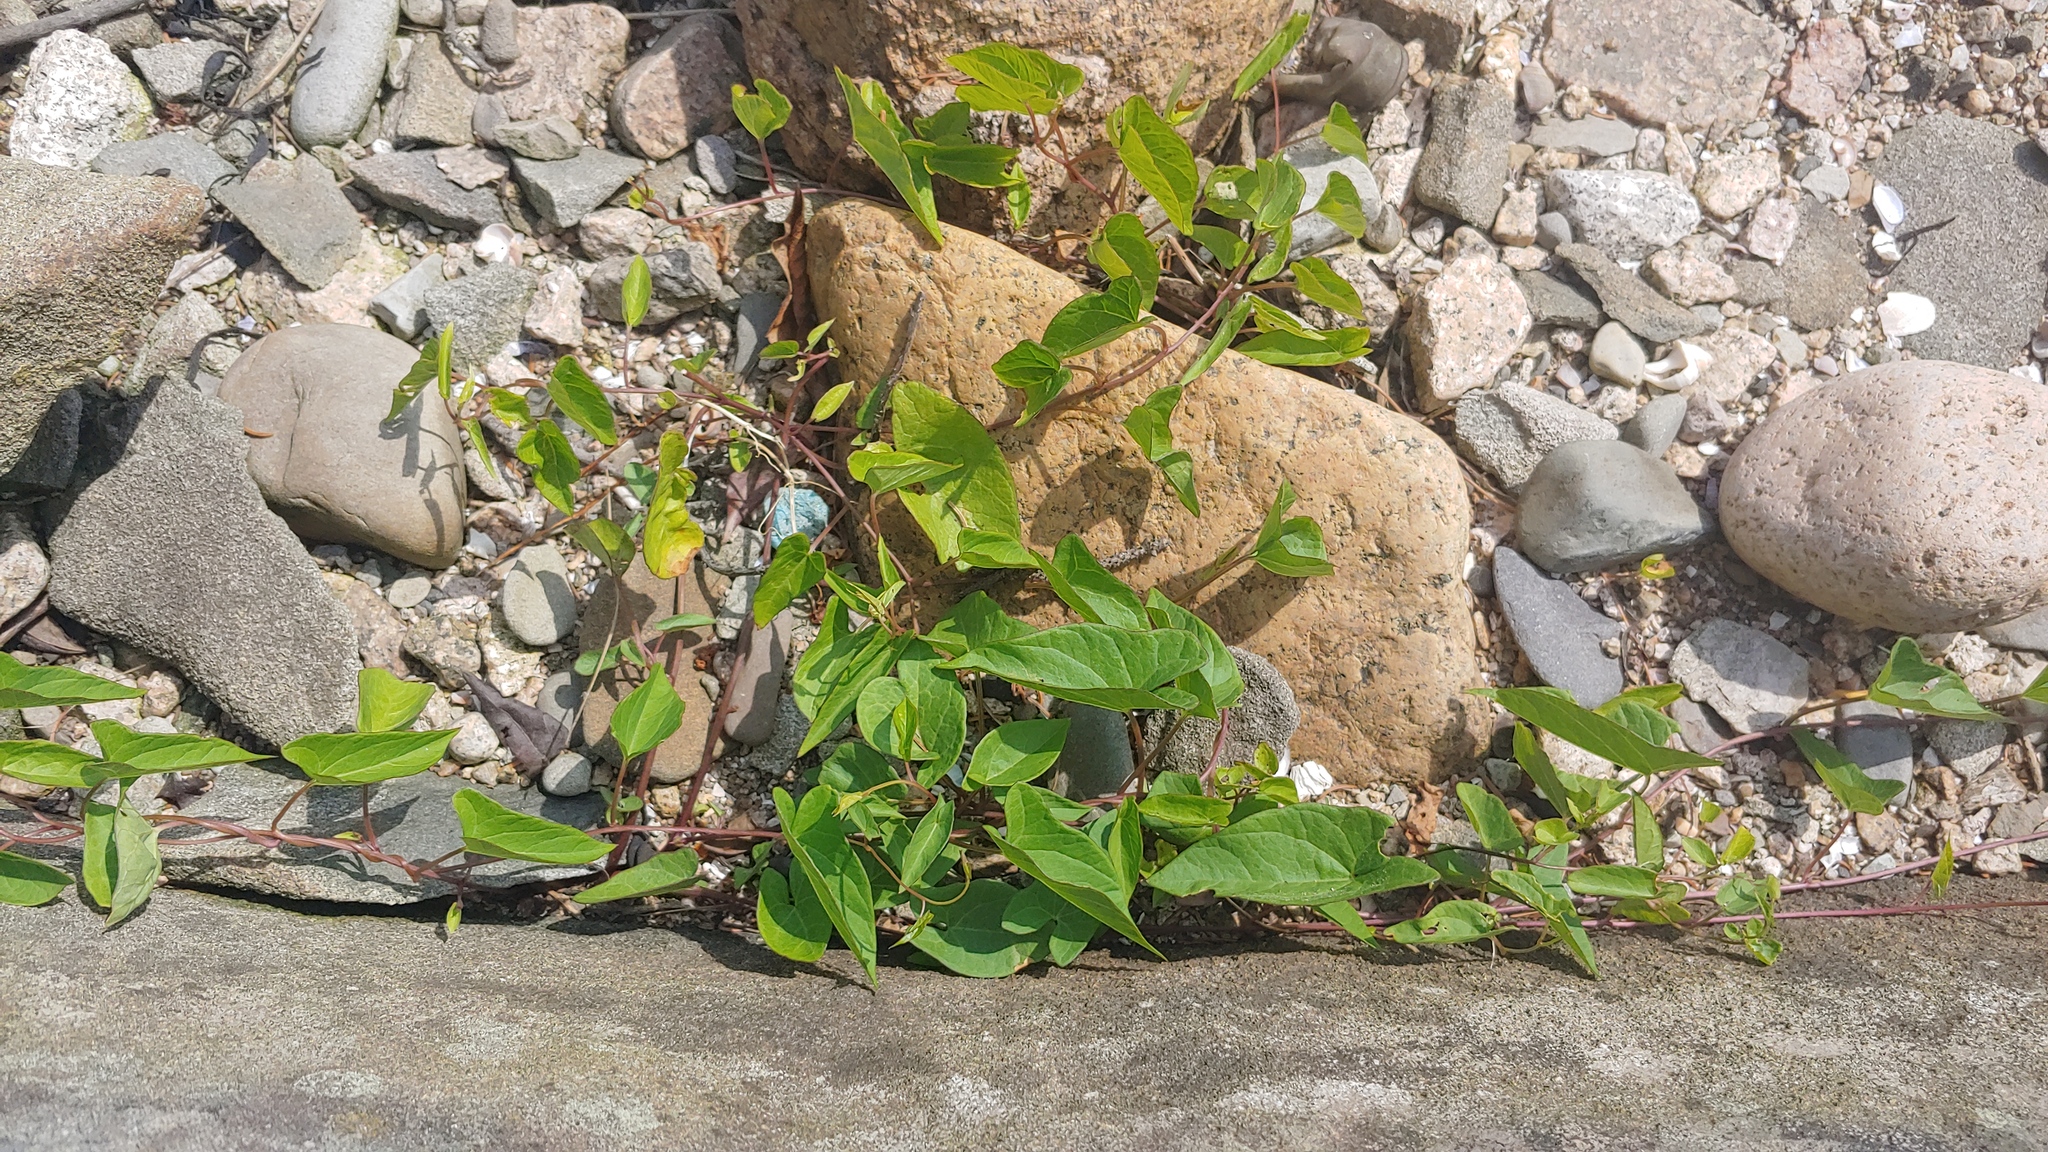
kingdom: Plantae
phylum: Tracheophyta
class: Magnoliopsida
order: Solanales
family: Convolvulaceae
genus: Calystegia
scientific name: Calystegia sepium
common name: Hedge bindweed
